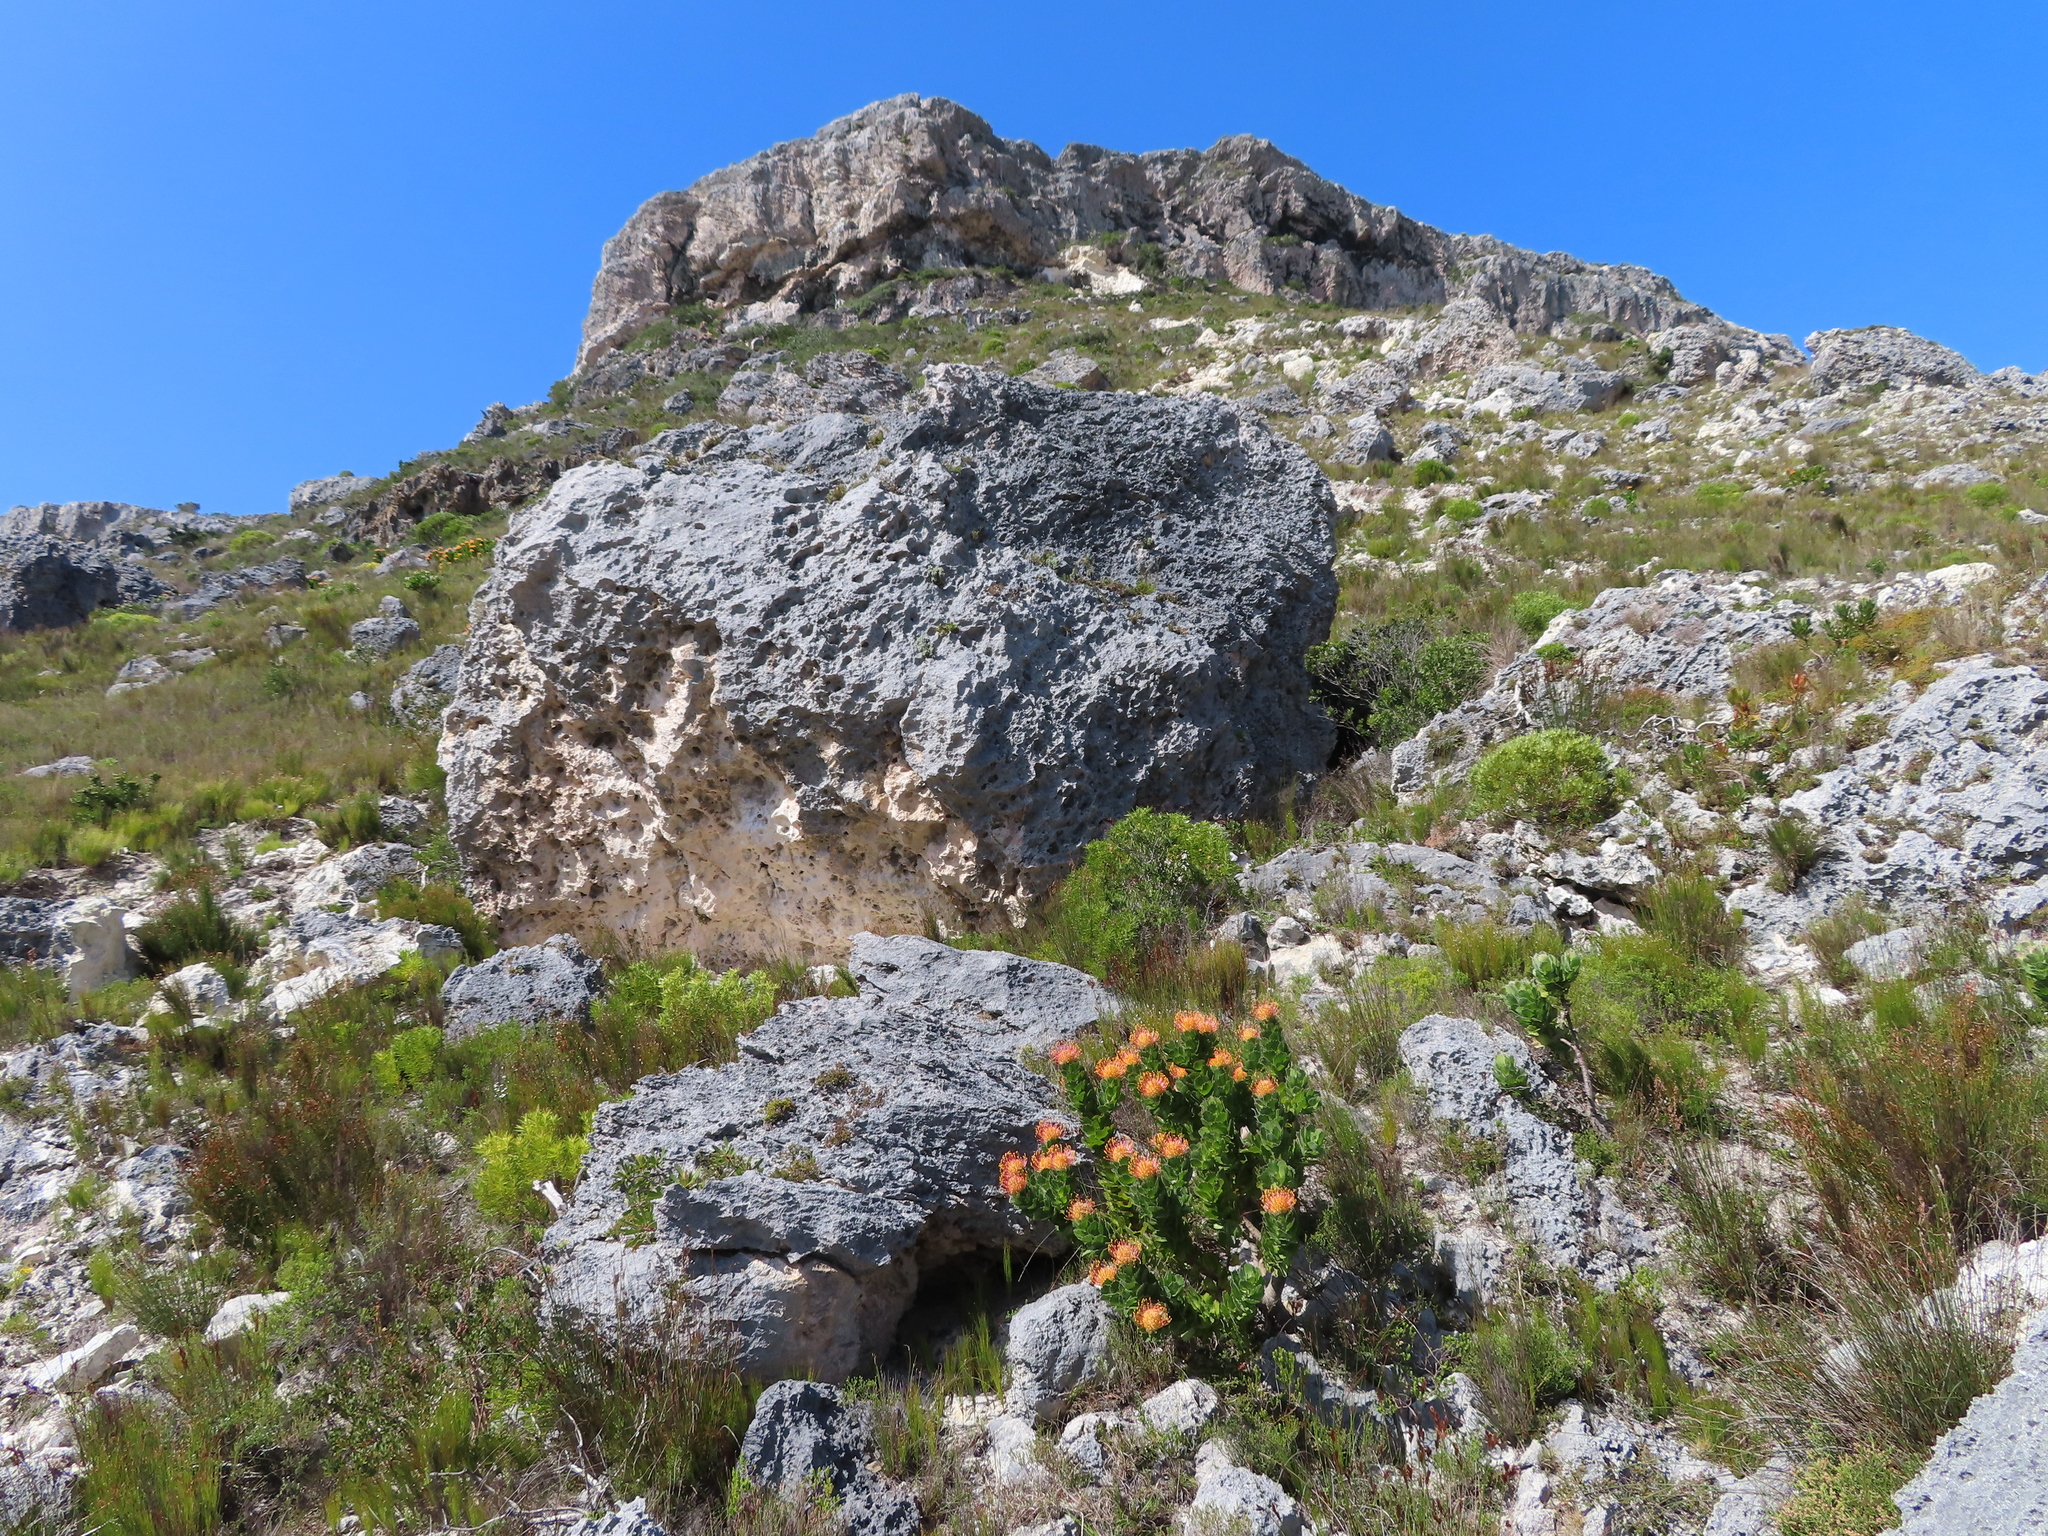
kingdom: Plantae
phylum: Tracheophyta
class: Magnoliopsida
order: Proteales
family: Proteaceae
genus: Leucospermum
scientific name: Leucospermum patersonii
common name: False tree pincushion
